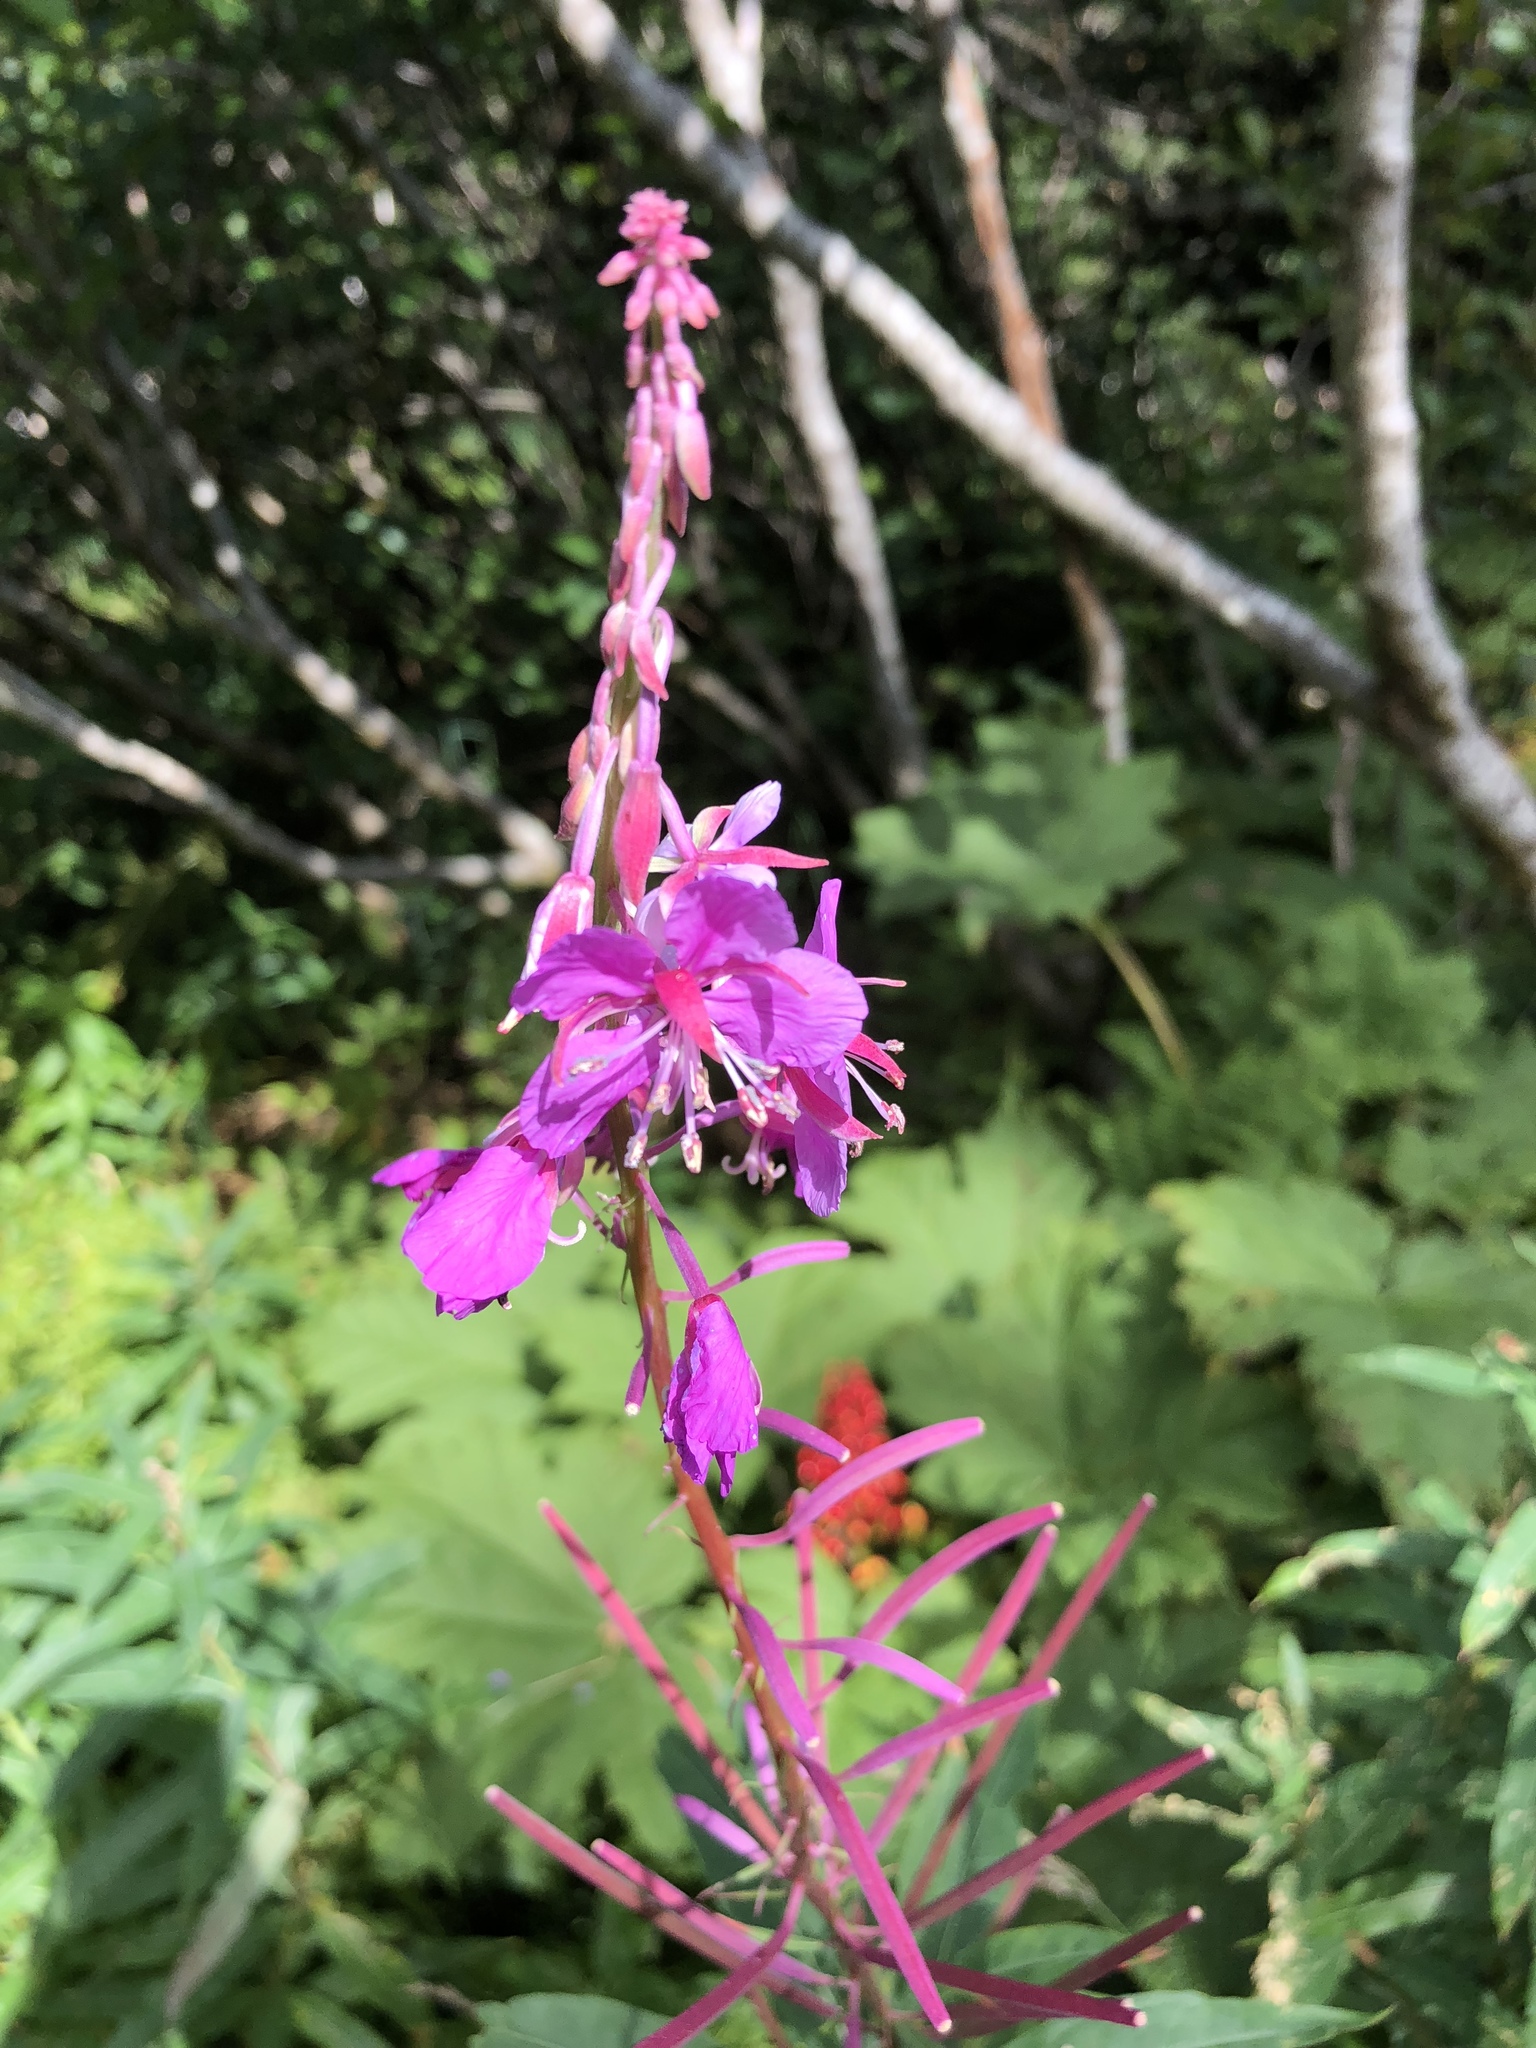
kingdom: Plantae
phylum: Tracheophyta
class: Magnoliopsida
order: Myrtales
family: Onagraceae
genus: Chamaenerion
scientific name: Chamaenerion angustifolium
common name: Fireweed
